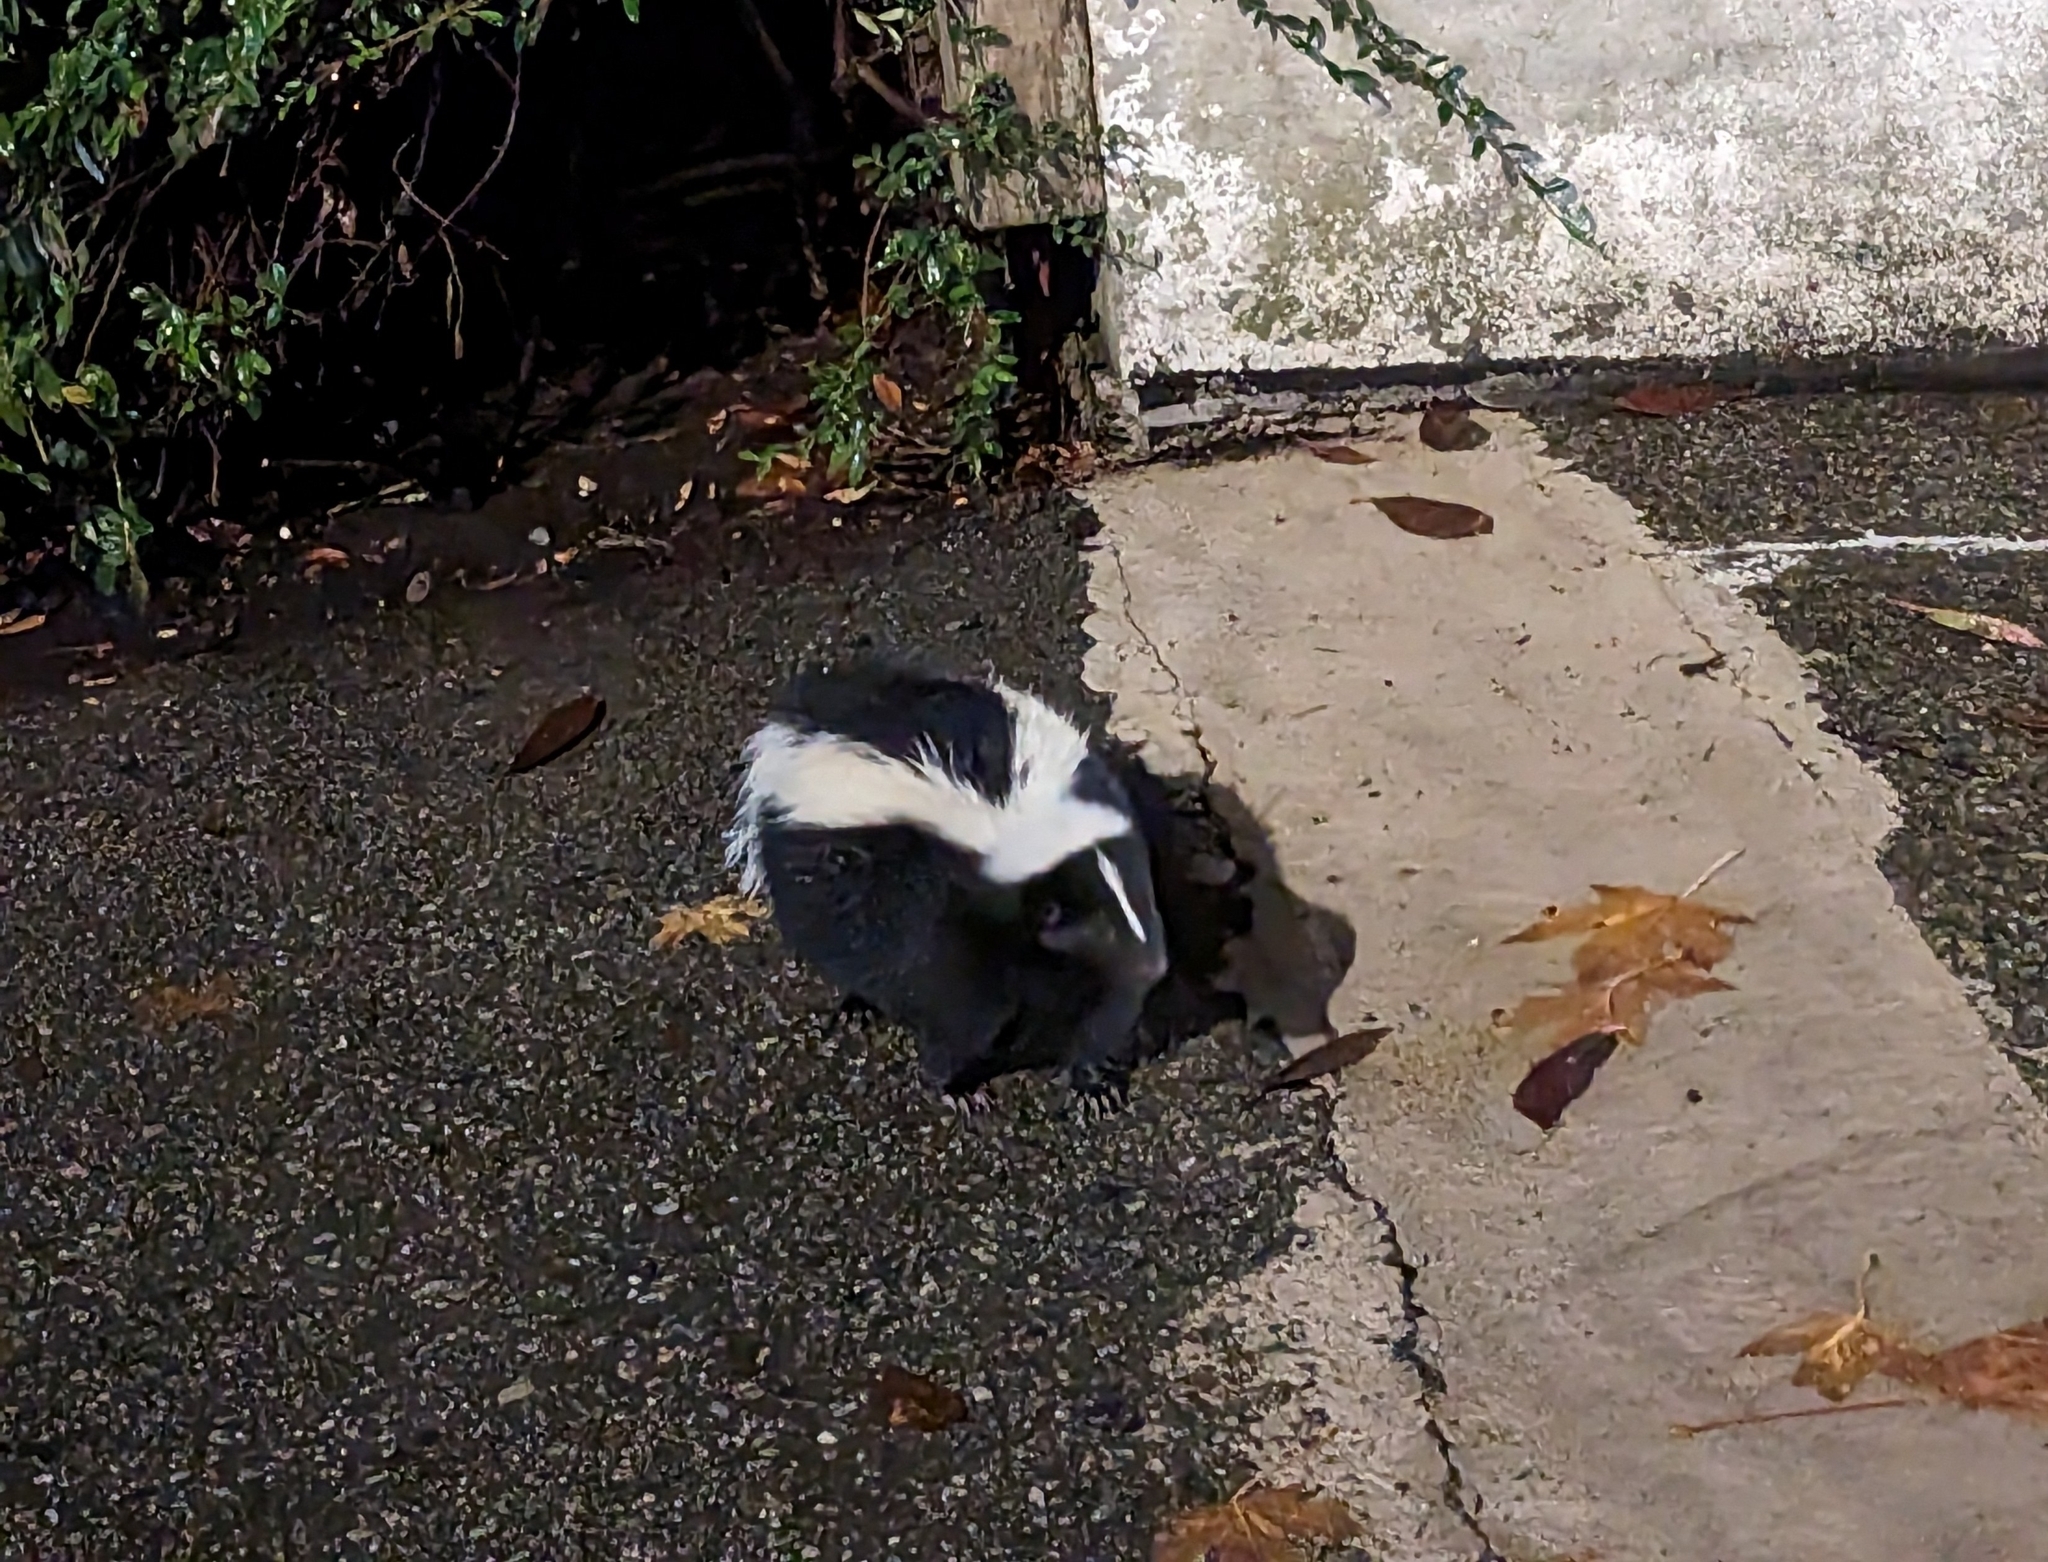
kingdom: Animalia
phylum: Chordata
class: Mammalia
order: Carnivora
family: Mephitidae
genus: Mephitis
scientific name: Mephitis mephitis
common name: Striped skunk
